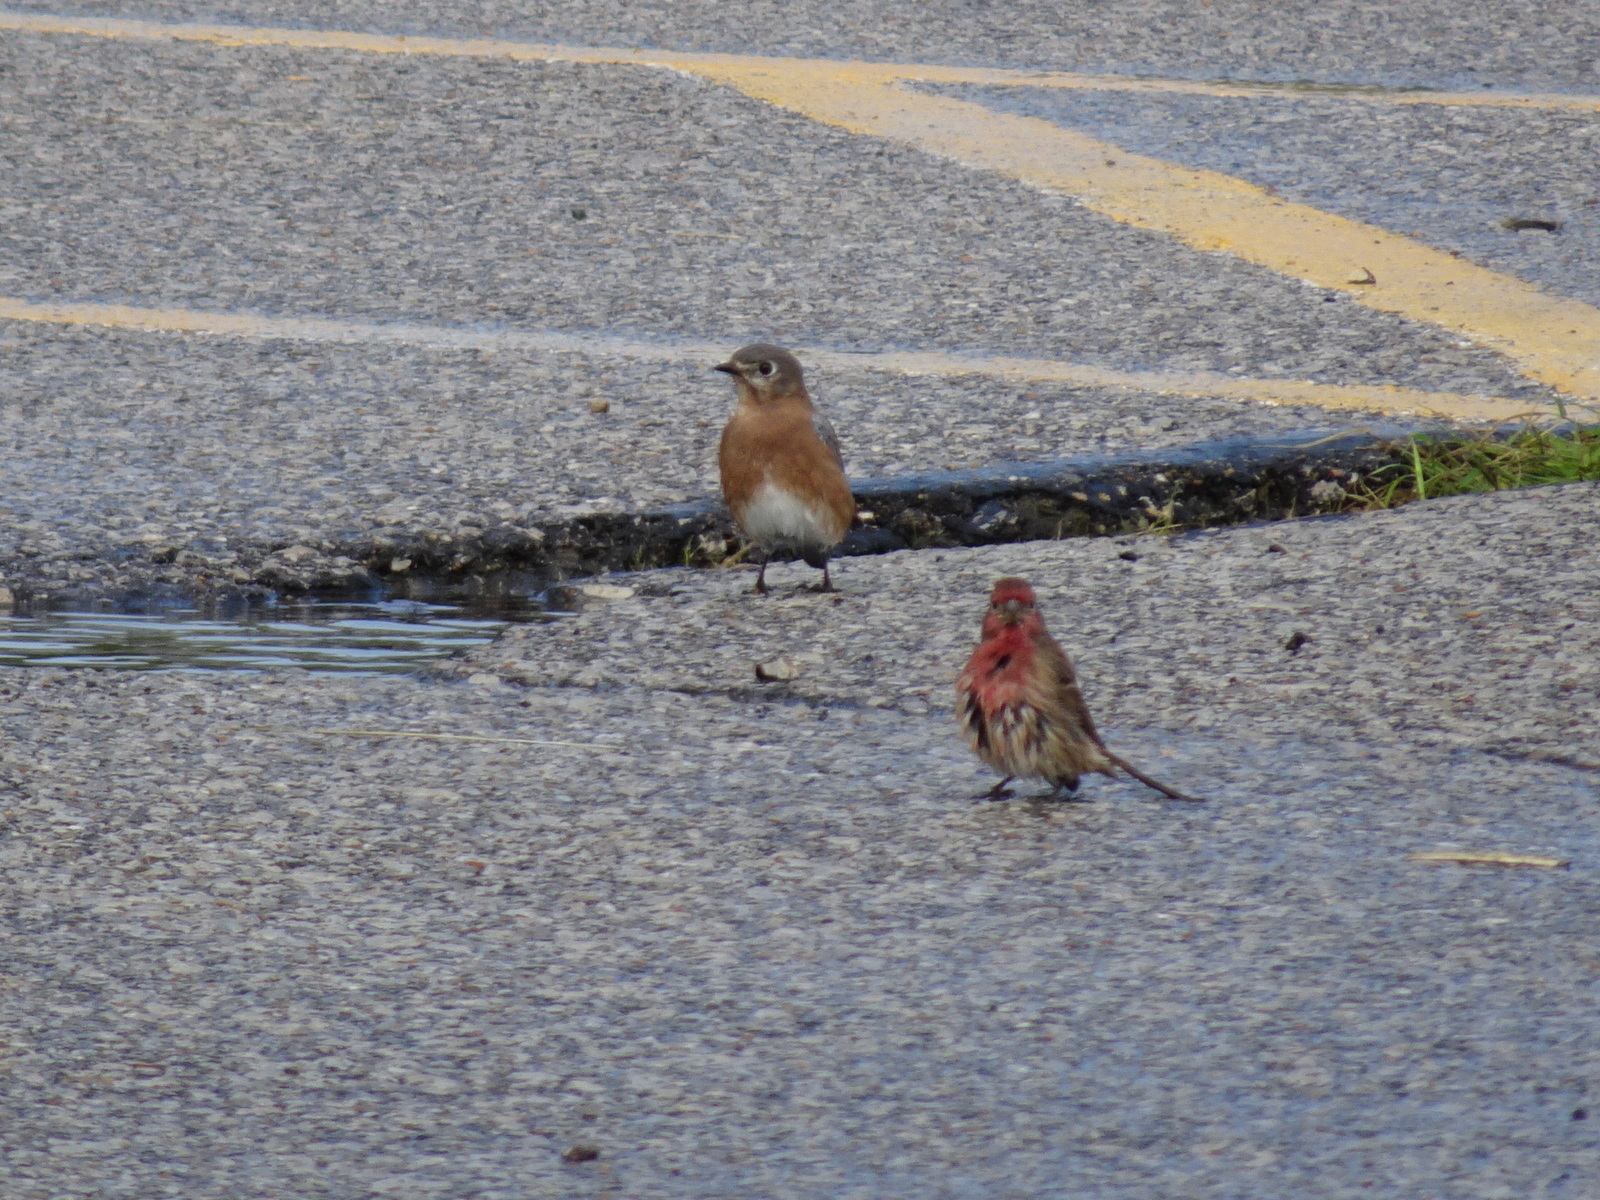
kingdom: Animalia
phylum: Chordata
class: Aves
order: Passeriformes
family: Turdidae
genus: Sialia
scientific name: Sialia sialis
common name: Eastern bluebird
